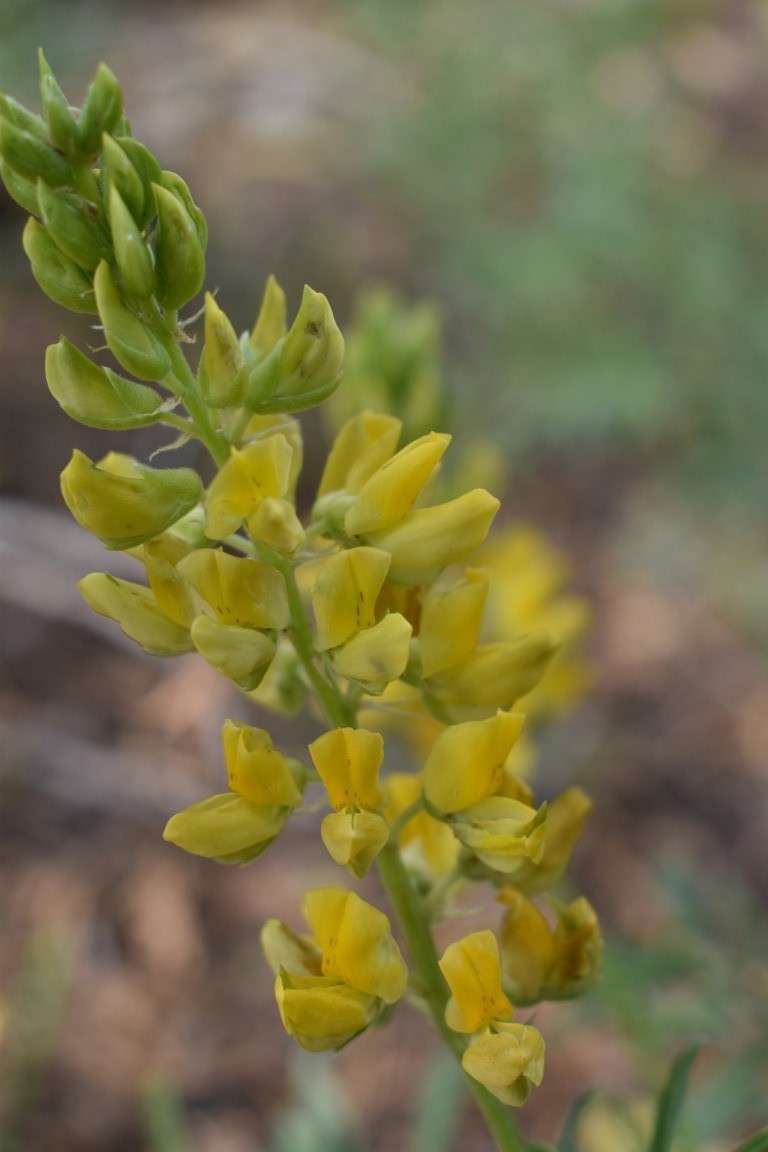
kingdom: Plantae
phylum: Tracheophyta
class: Magnoliopsida
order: Fabales
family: Fabaceae
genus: Lupinus
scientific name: Lupinus croceus
